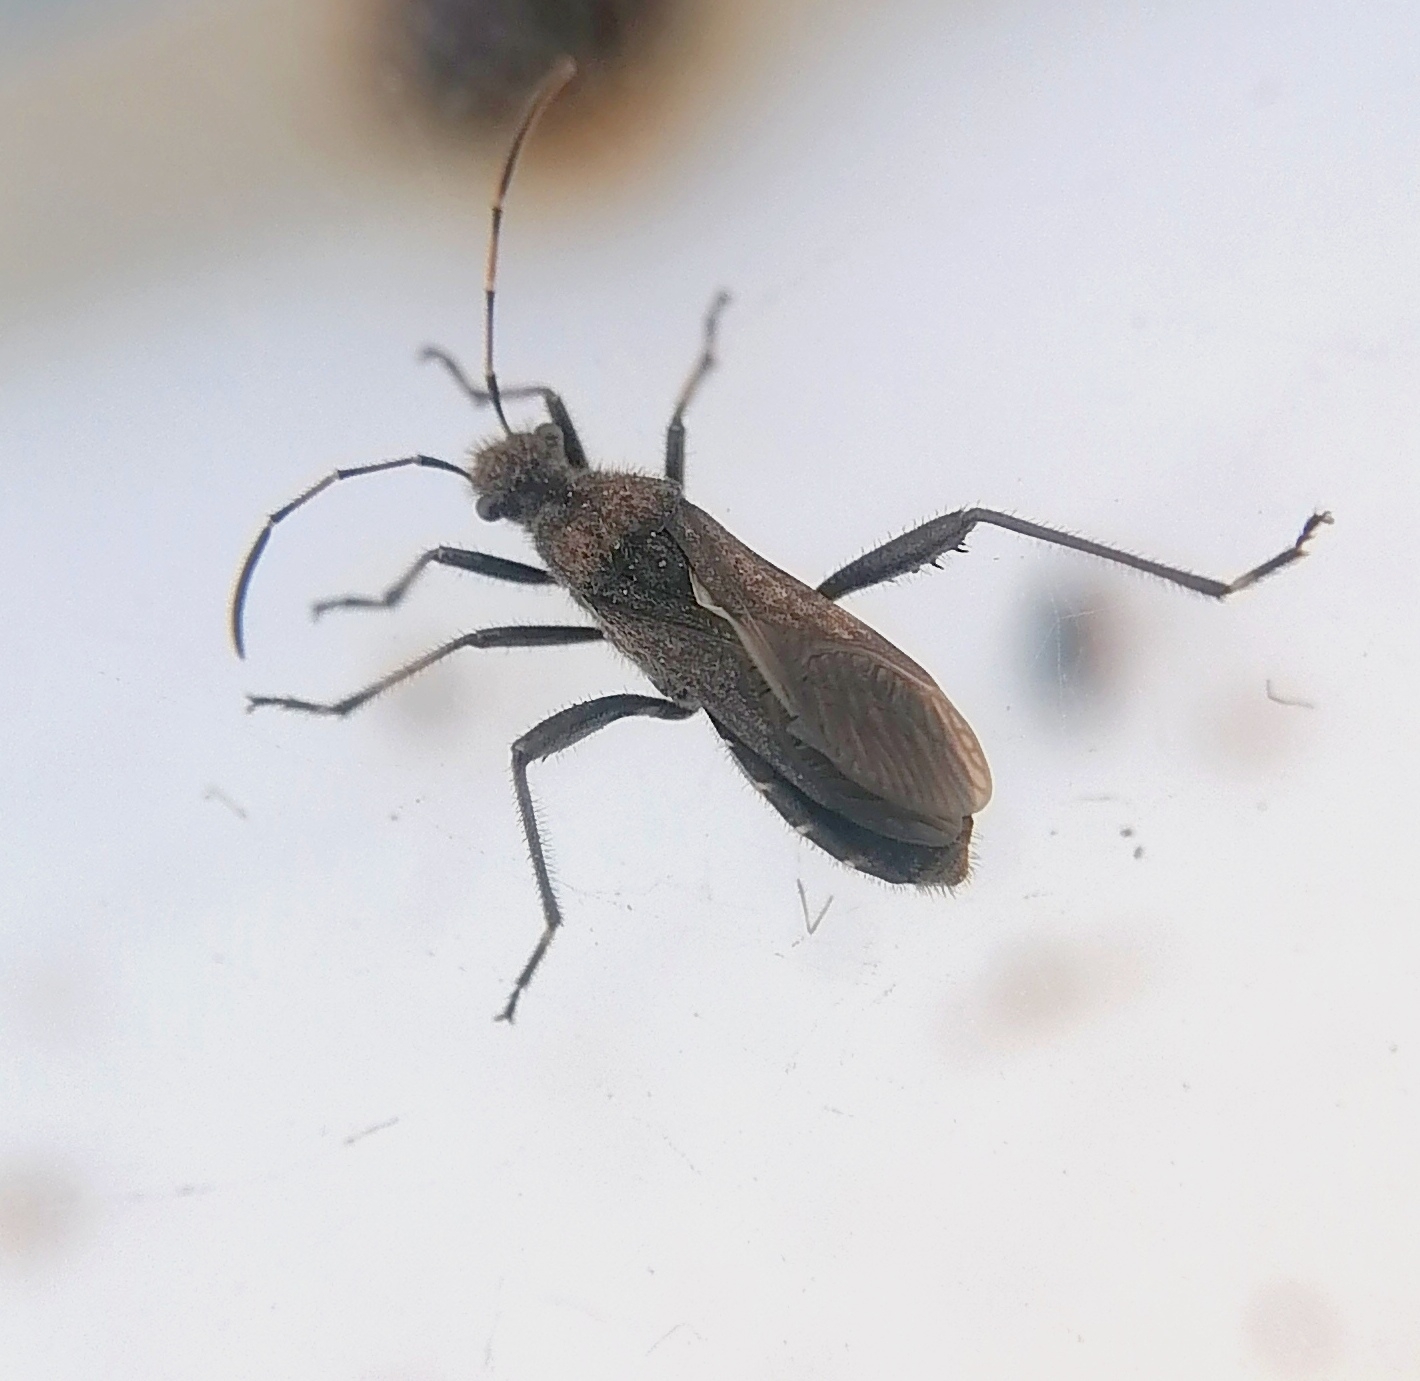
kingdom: Animalia
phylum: Arthropoda
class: Insecta
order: Hemiptera
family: Alydidae
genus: Alydus
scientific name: Alydus calcaratus
